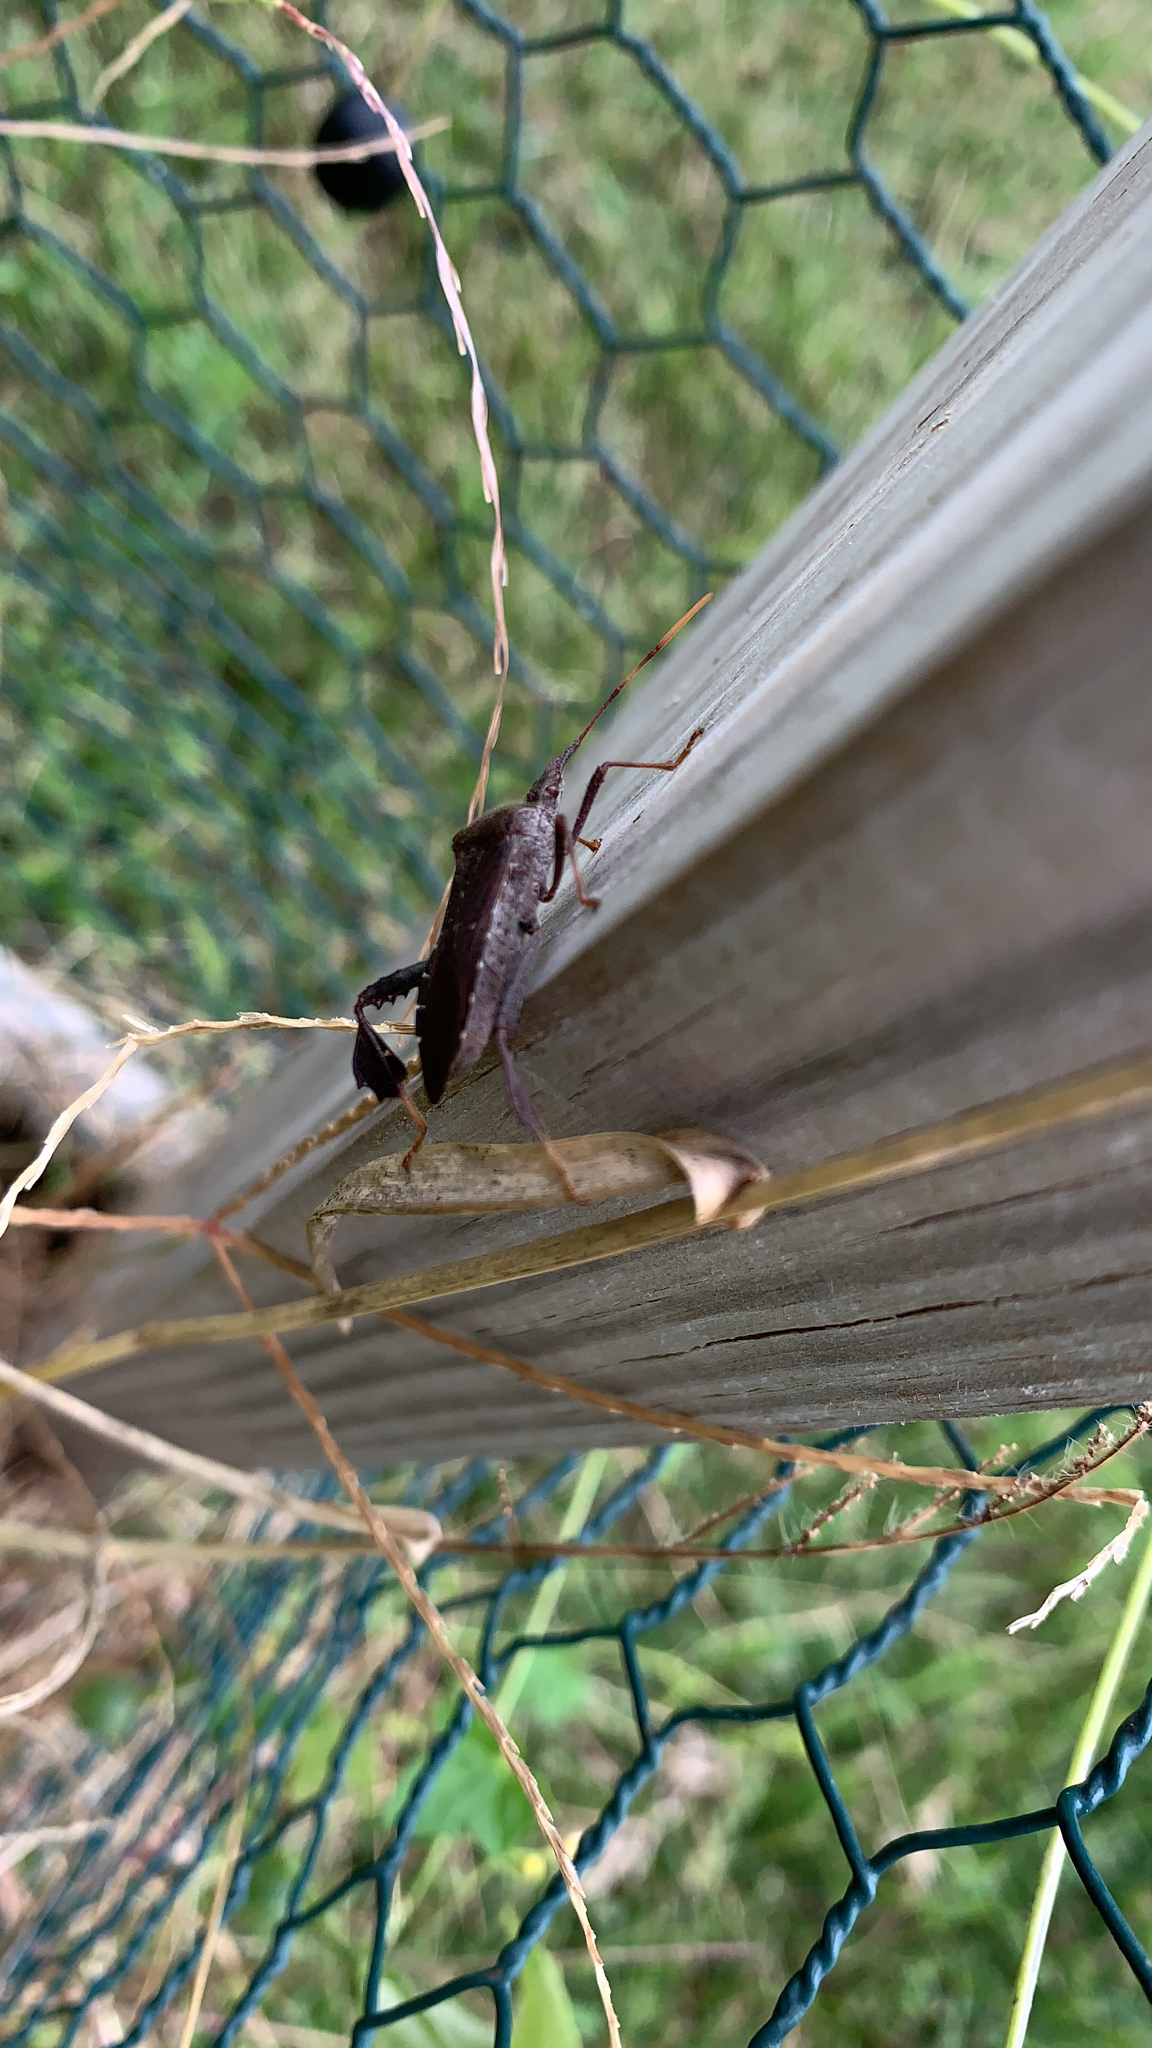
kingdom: Animalia
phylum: Arthropoda
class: Insecta
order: Hemiptera
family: Coreidae
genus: Leptoglossus
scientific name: Leptoglossus oppositus
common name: Northern leaf-footed bug
